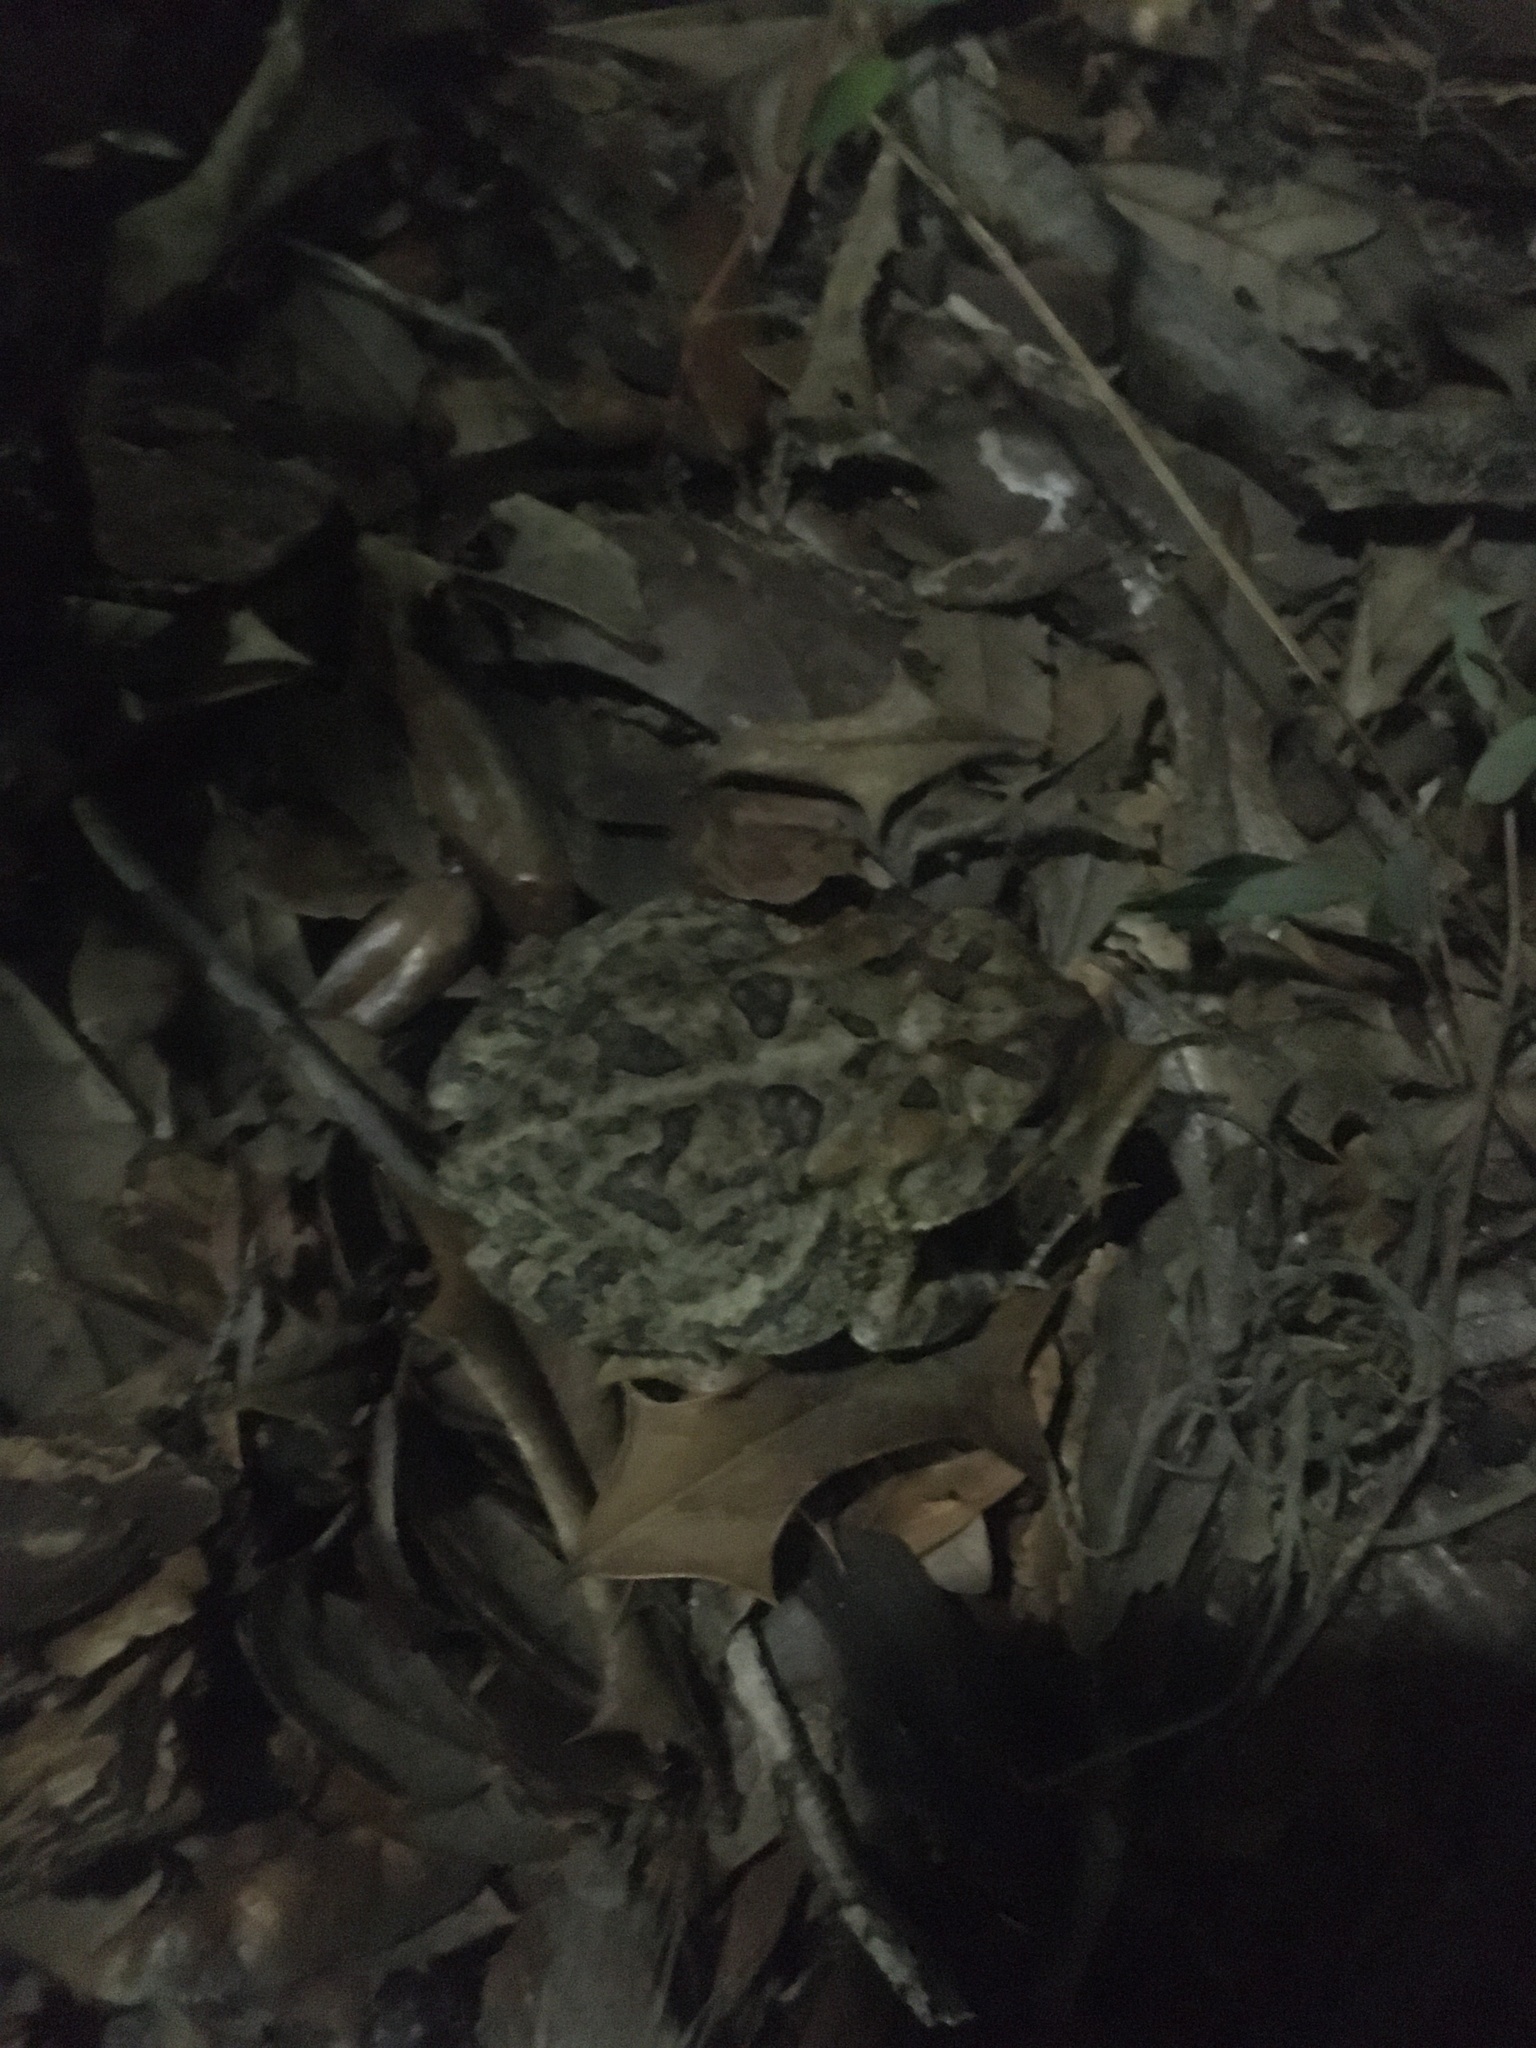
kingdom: Animalia
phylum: Chordata
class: Amphibia
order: Anura
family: Bufonidae
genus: Anaxyrus
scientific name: Anaxyrus terrestris
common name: Southern toad
